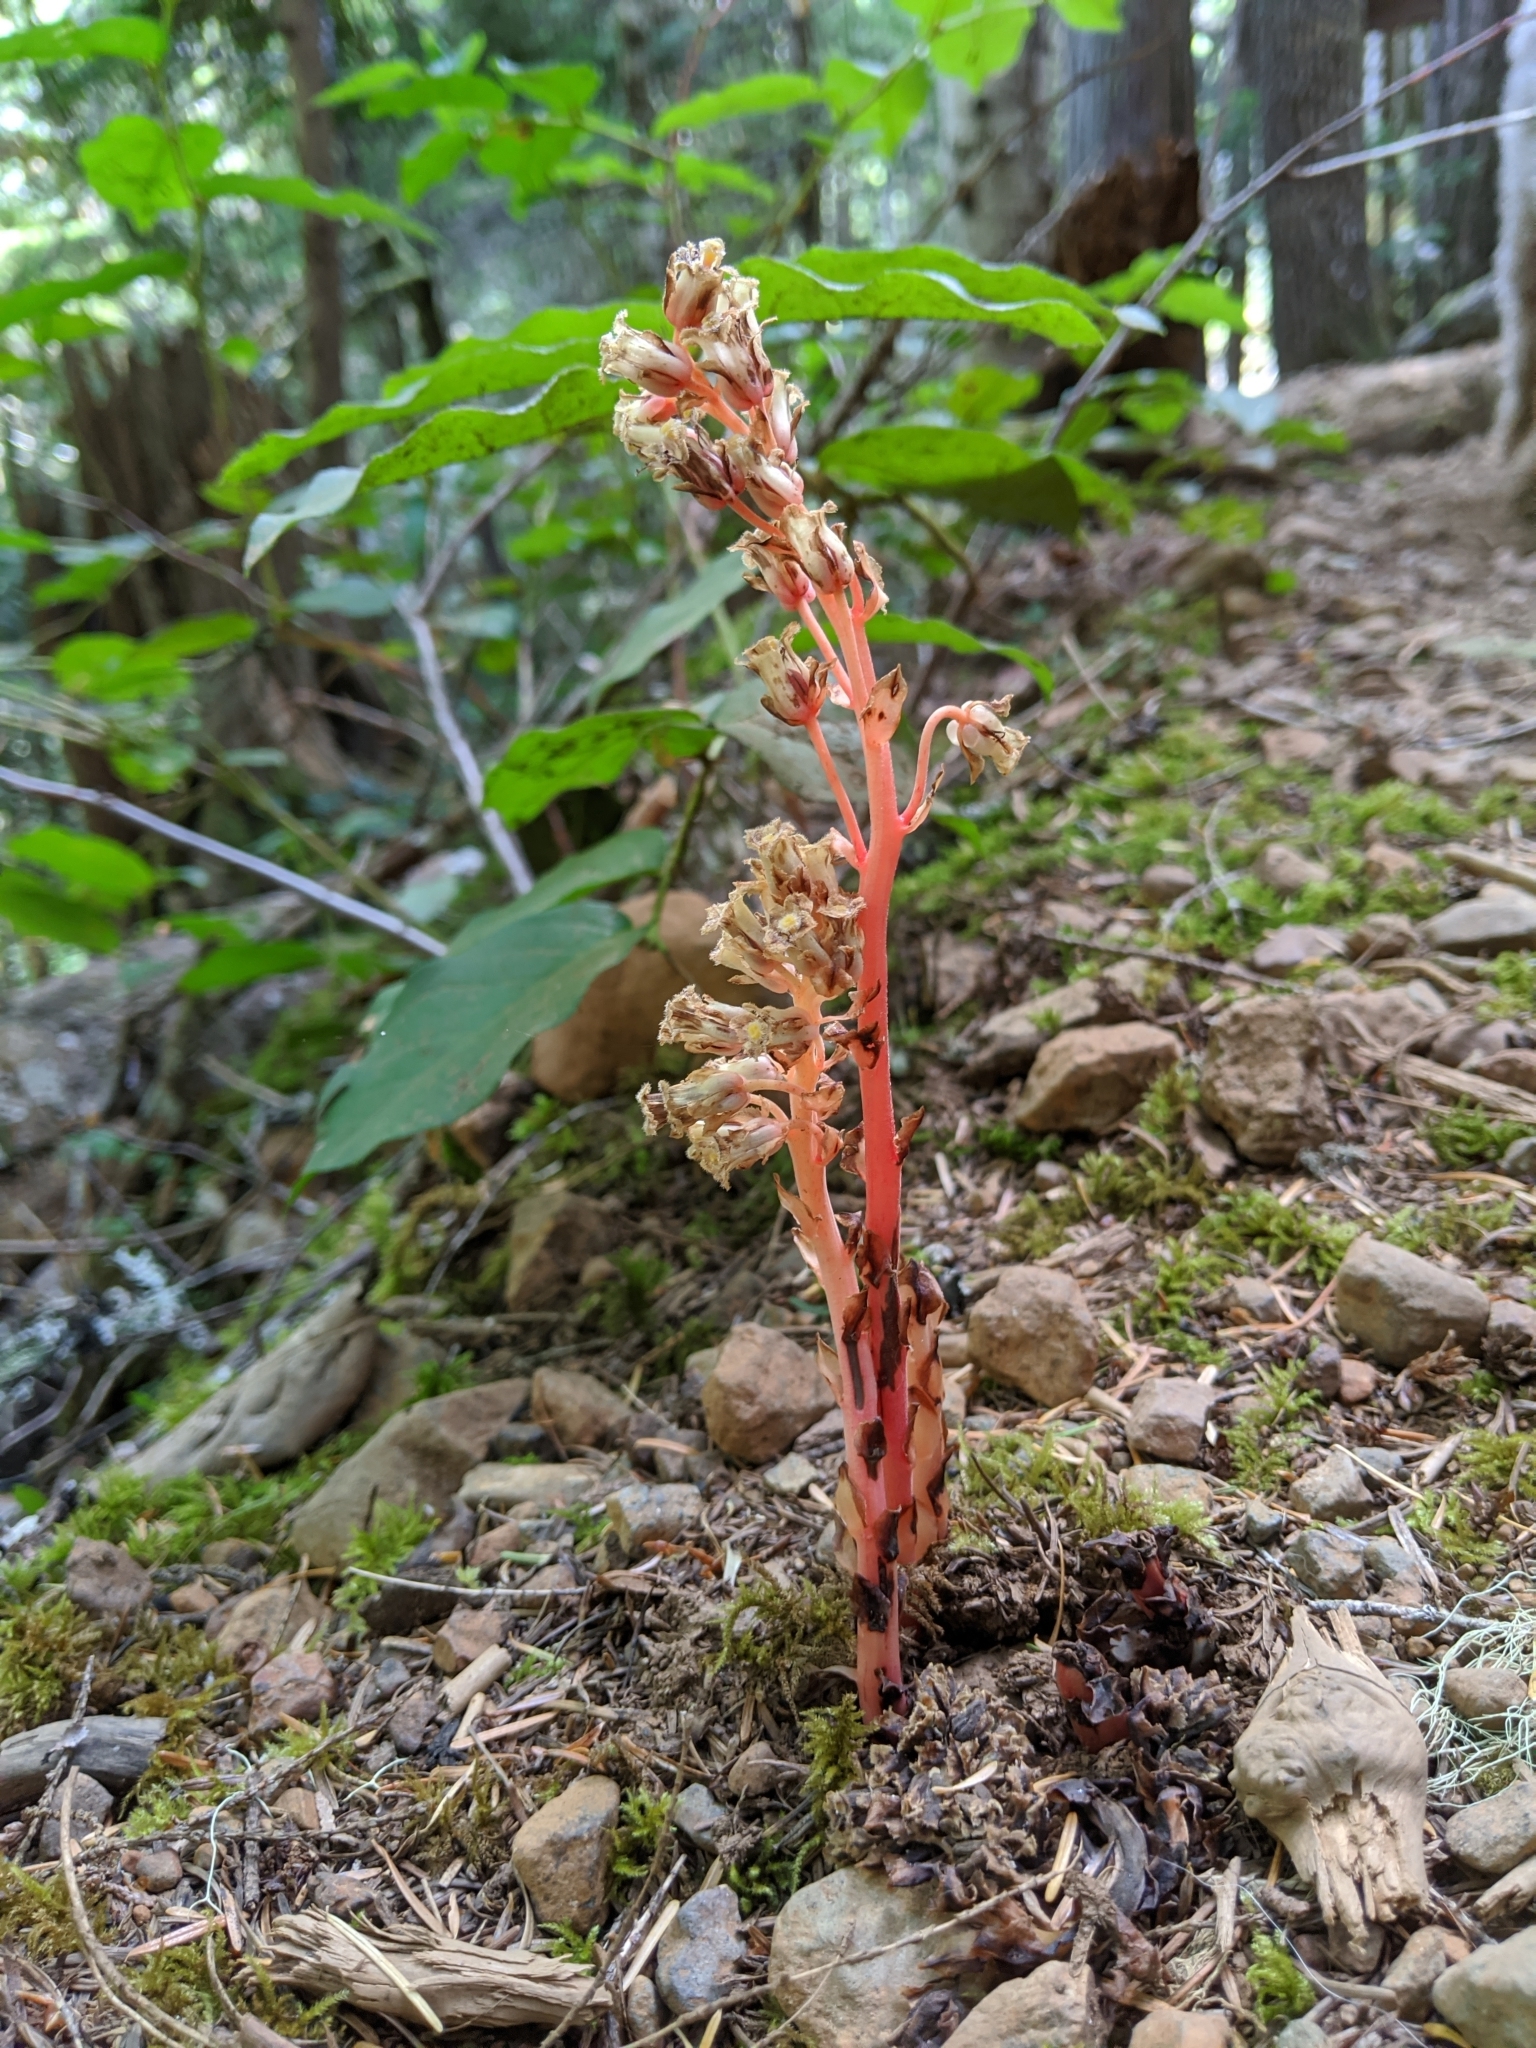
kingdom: Plantae
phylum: Tracheophyta
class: Magnoliopsida
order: Ericales
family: Ericaceae
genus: Hypopitys
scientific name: Hypopitys monotropa
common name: Yellow bird's-nest
